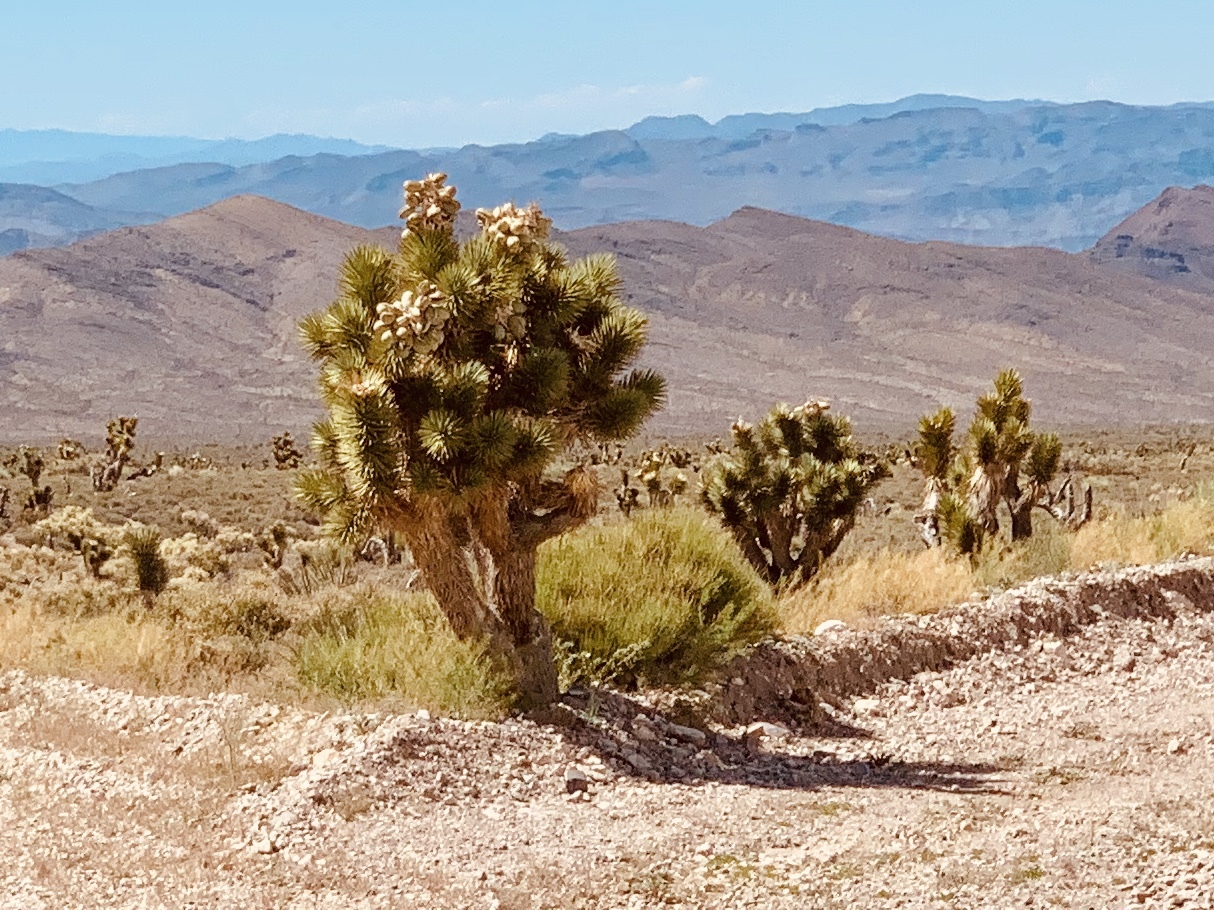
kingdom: Plantae
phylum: Tracheophyta
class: Liliopsida
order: Asparagales
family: Asparagaceae
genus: Yucca
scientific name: Yucca brevifolia
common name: Joshua tree
